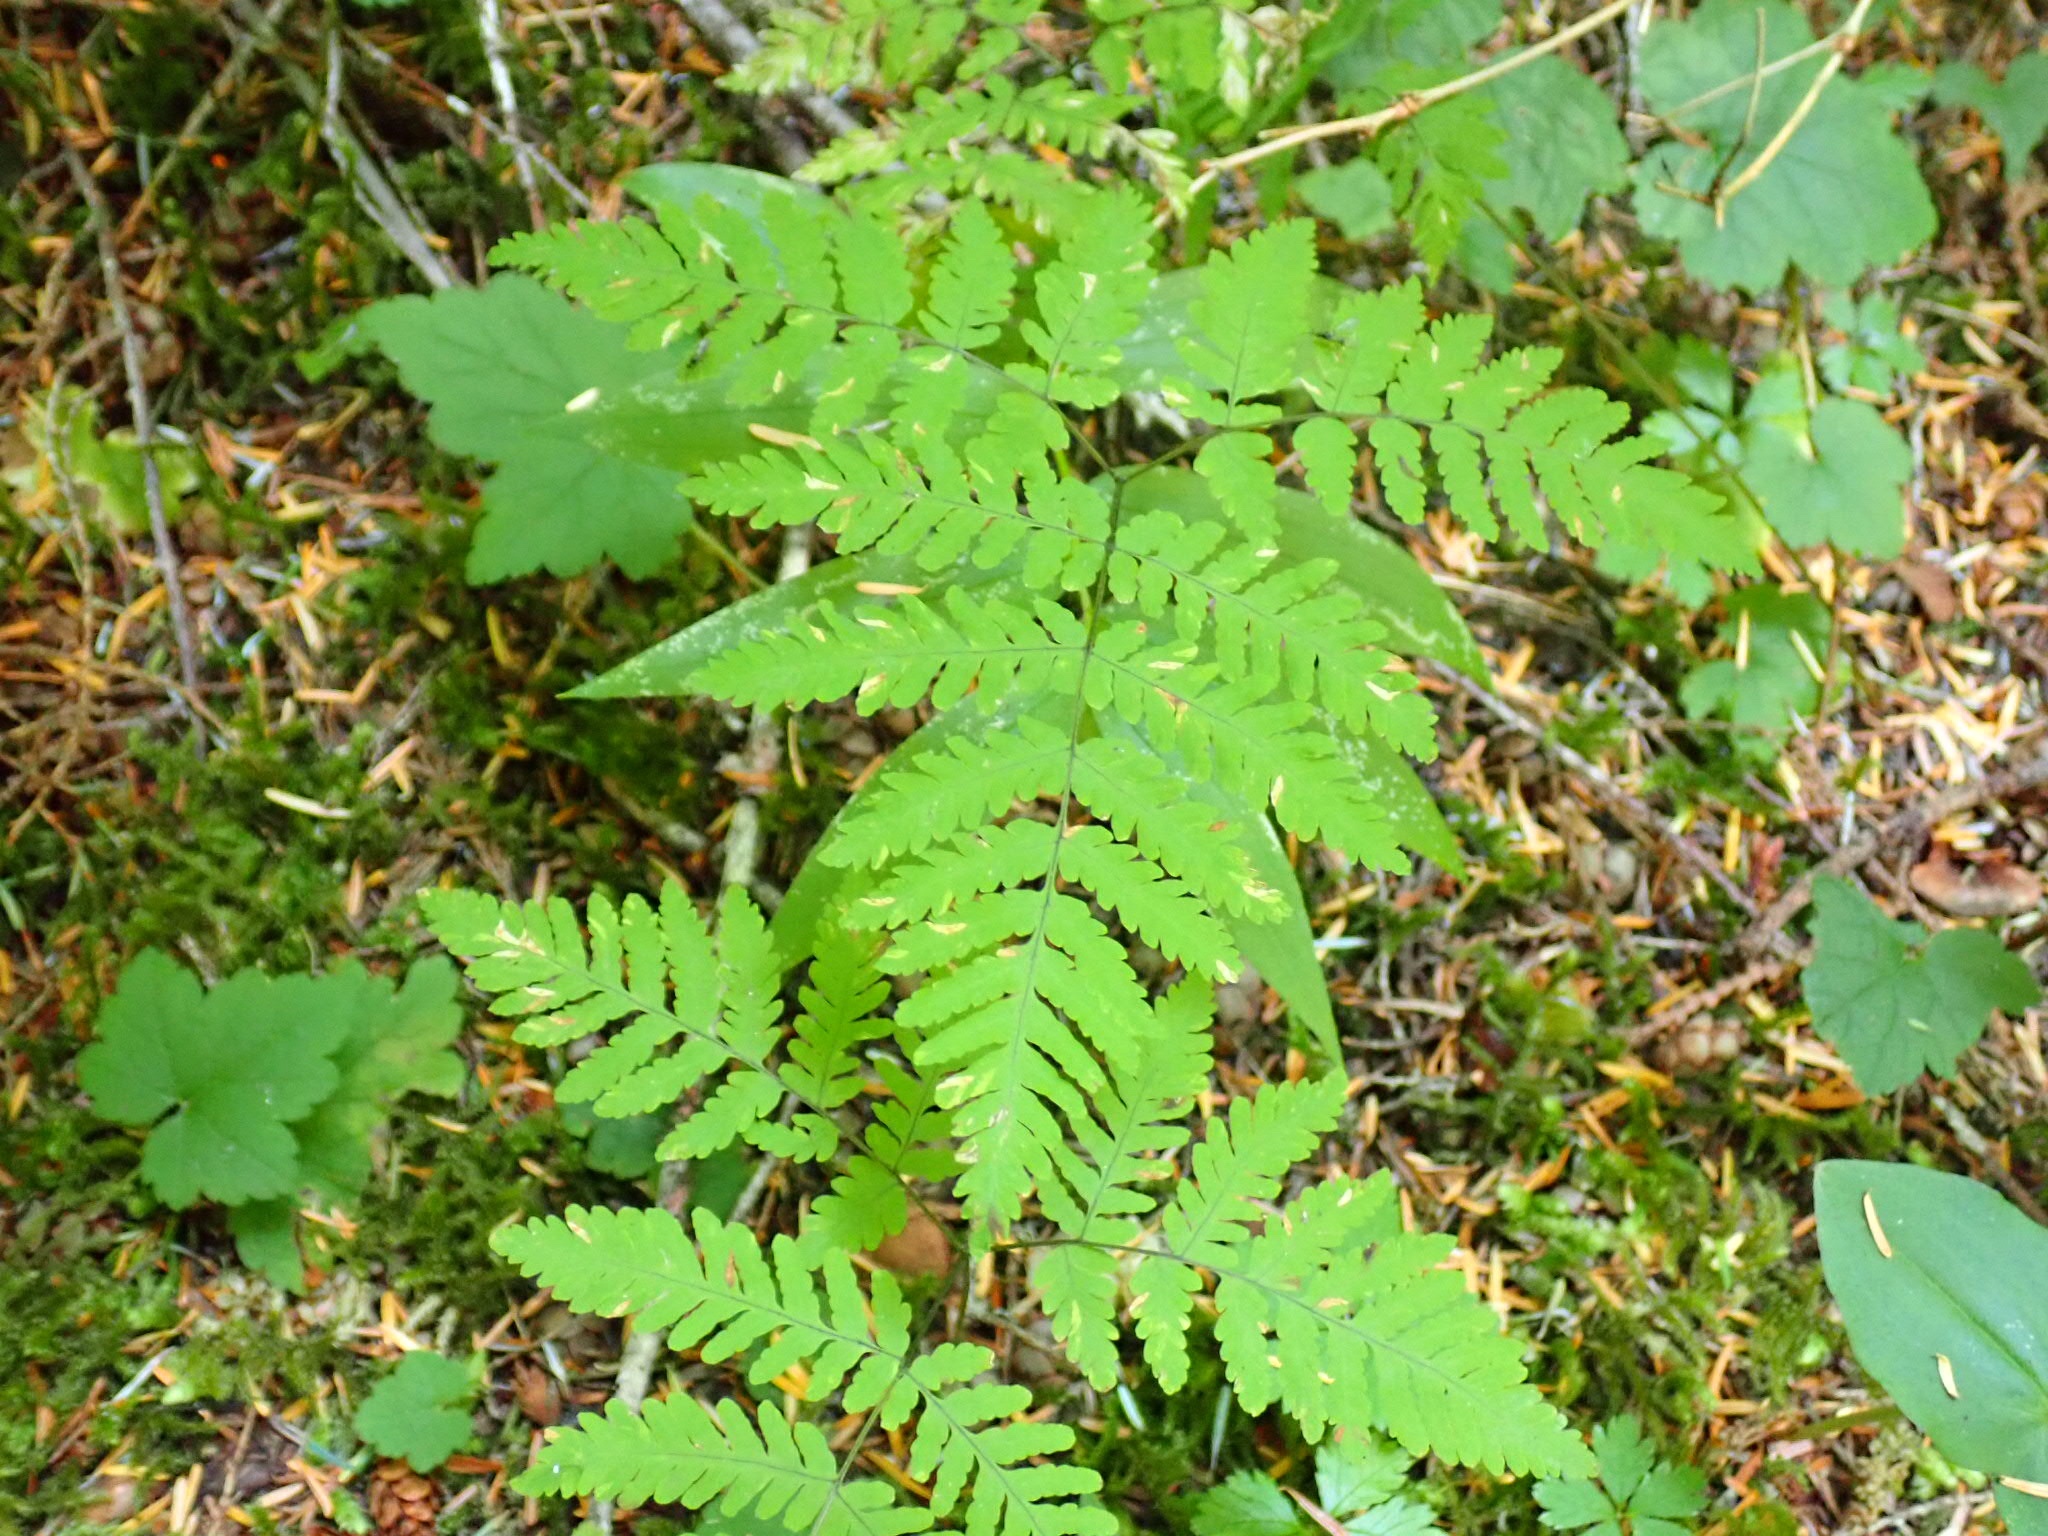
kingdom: Plantae
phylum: Tracheophyta
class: Polypodiopsida
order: Polypodiales
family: Cystopteridaceae
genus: Gymnocarpium
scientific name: Gymnocarpium disjunctum
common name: Western oak fern
